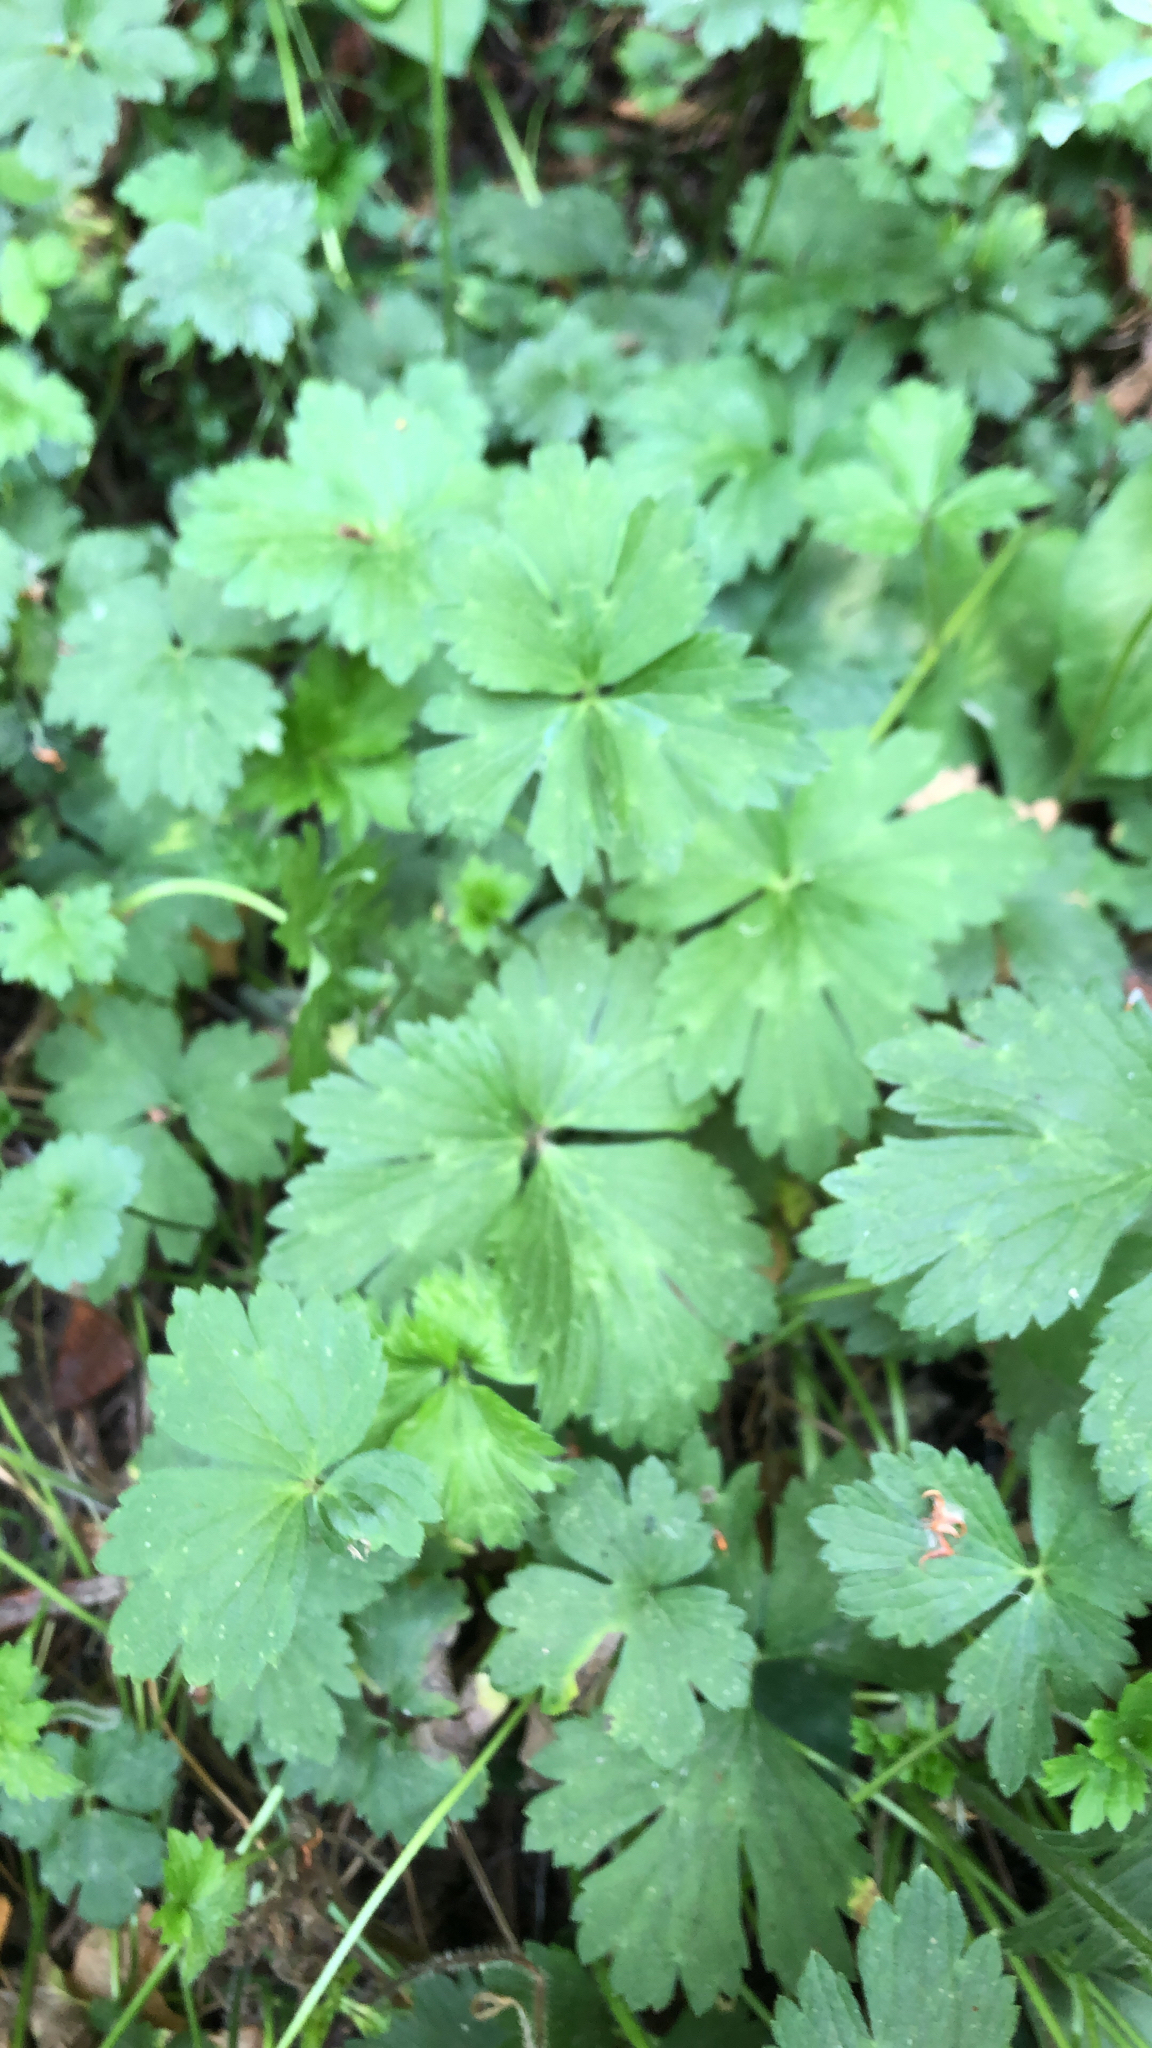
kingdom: Plantae
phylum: Tracheophyta
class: Magnoliopsida
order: Ranunculales
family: Ranunculaceae
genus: Ranunculus
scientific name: Ranunculus repens
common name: Creeping buttercup
